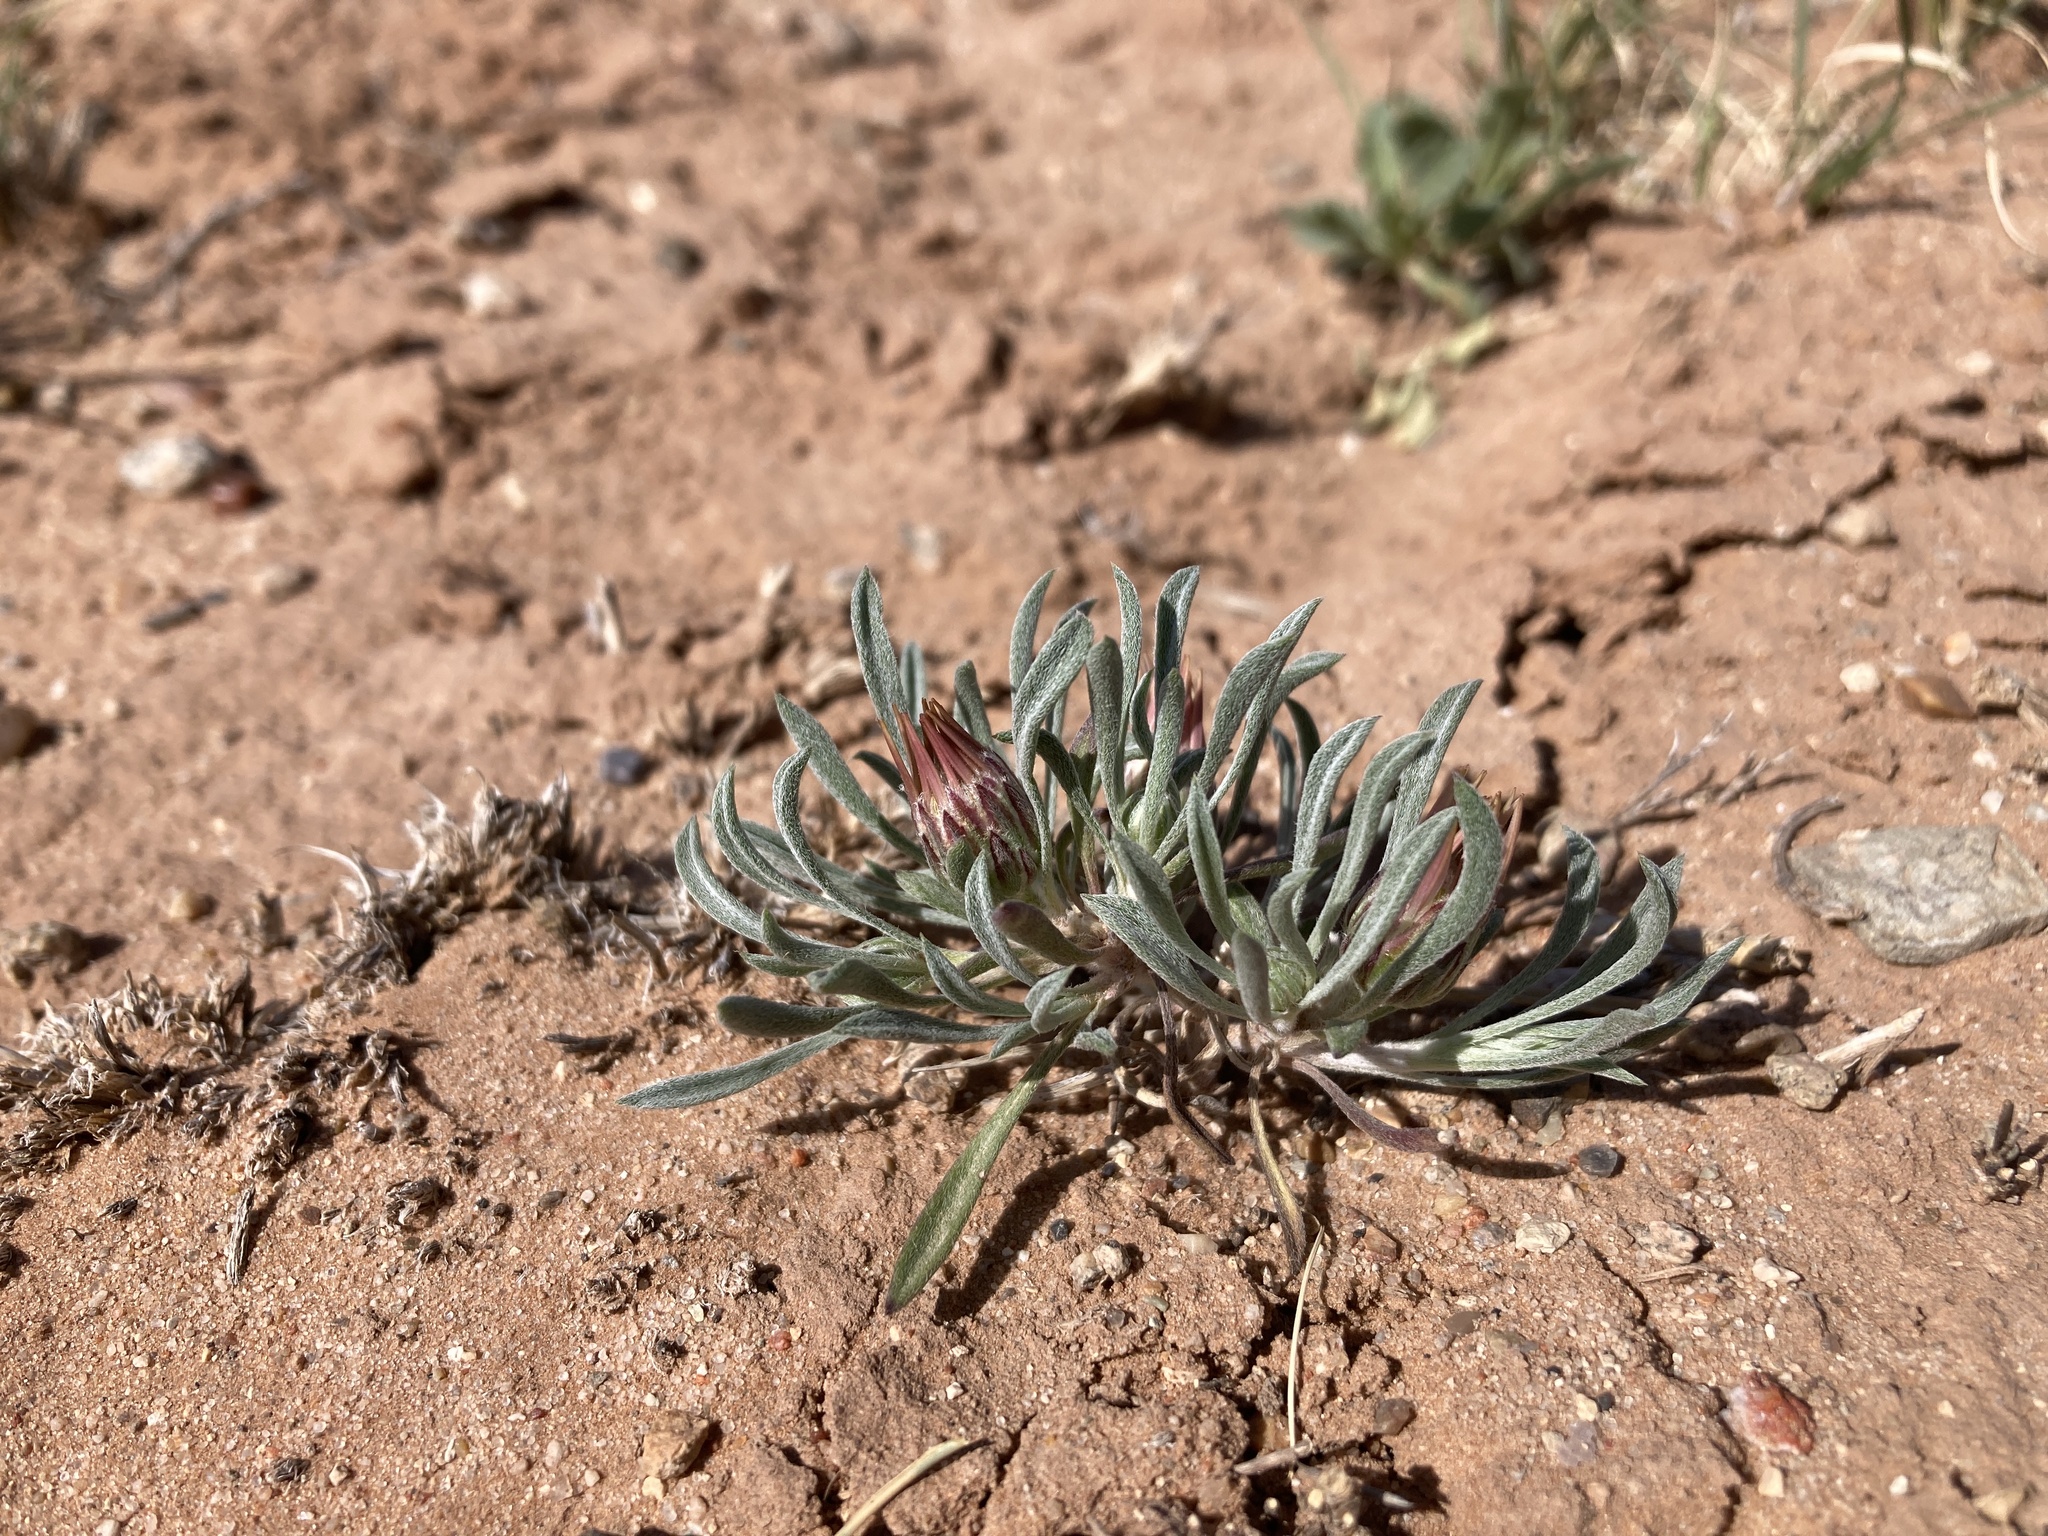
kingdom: Plantae
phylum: Tracheophyta
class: Magnoliopsida
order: Asterales
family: Asteraceae
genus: Townsendia
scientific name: Townsendia incana
